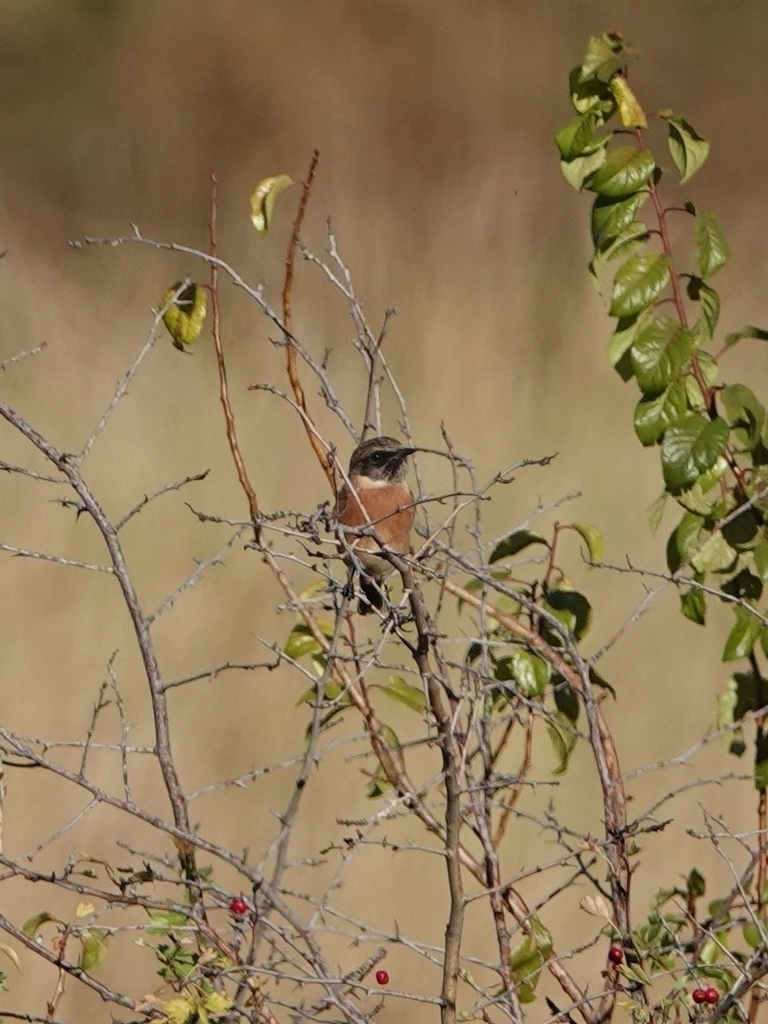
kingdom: Animalia
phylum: Chordata
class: Aves
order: Passeriformes
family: Muscicapidae
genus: Saxicola
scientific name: Saxicola rubicola
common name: European stonechat
